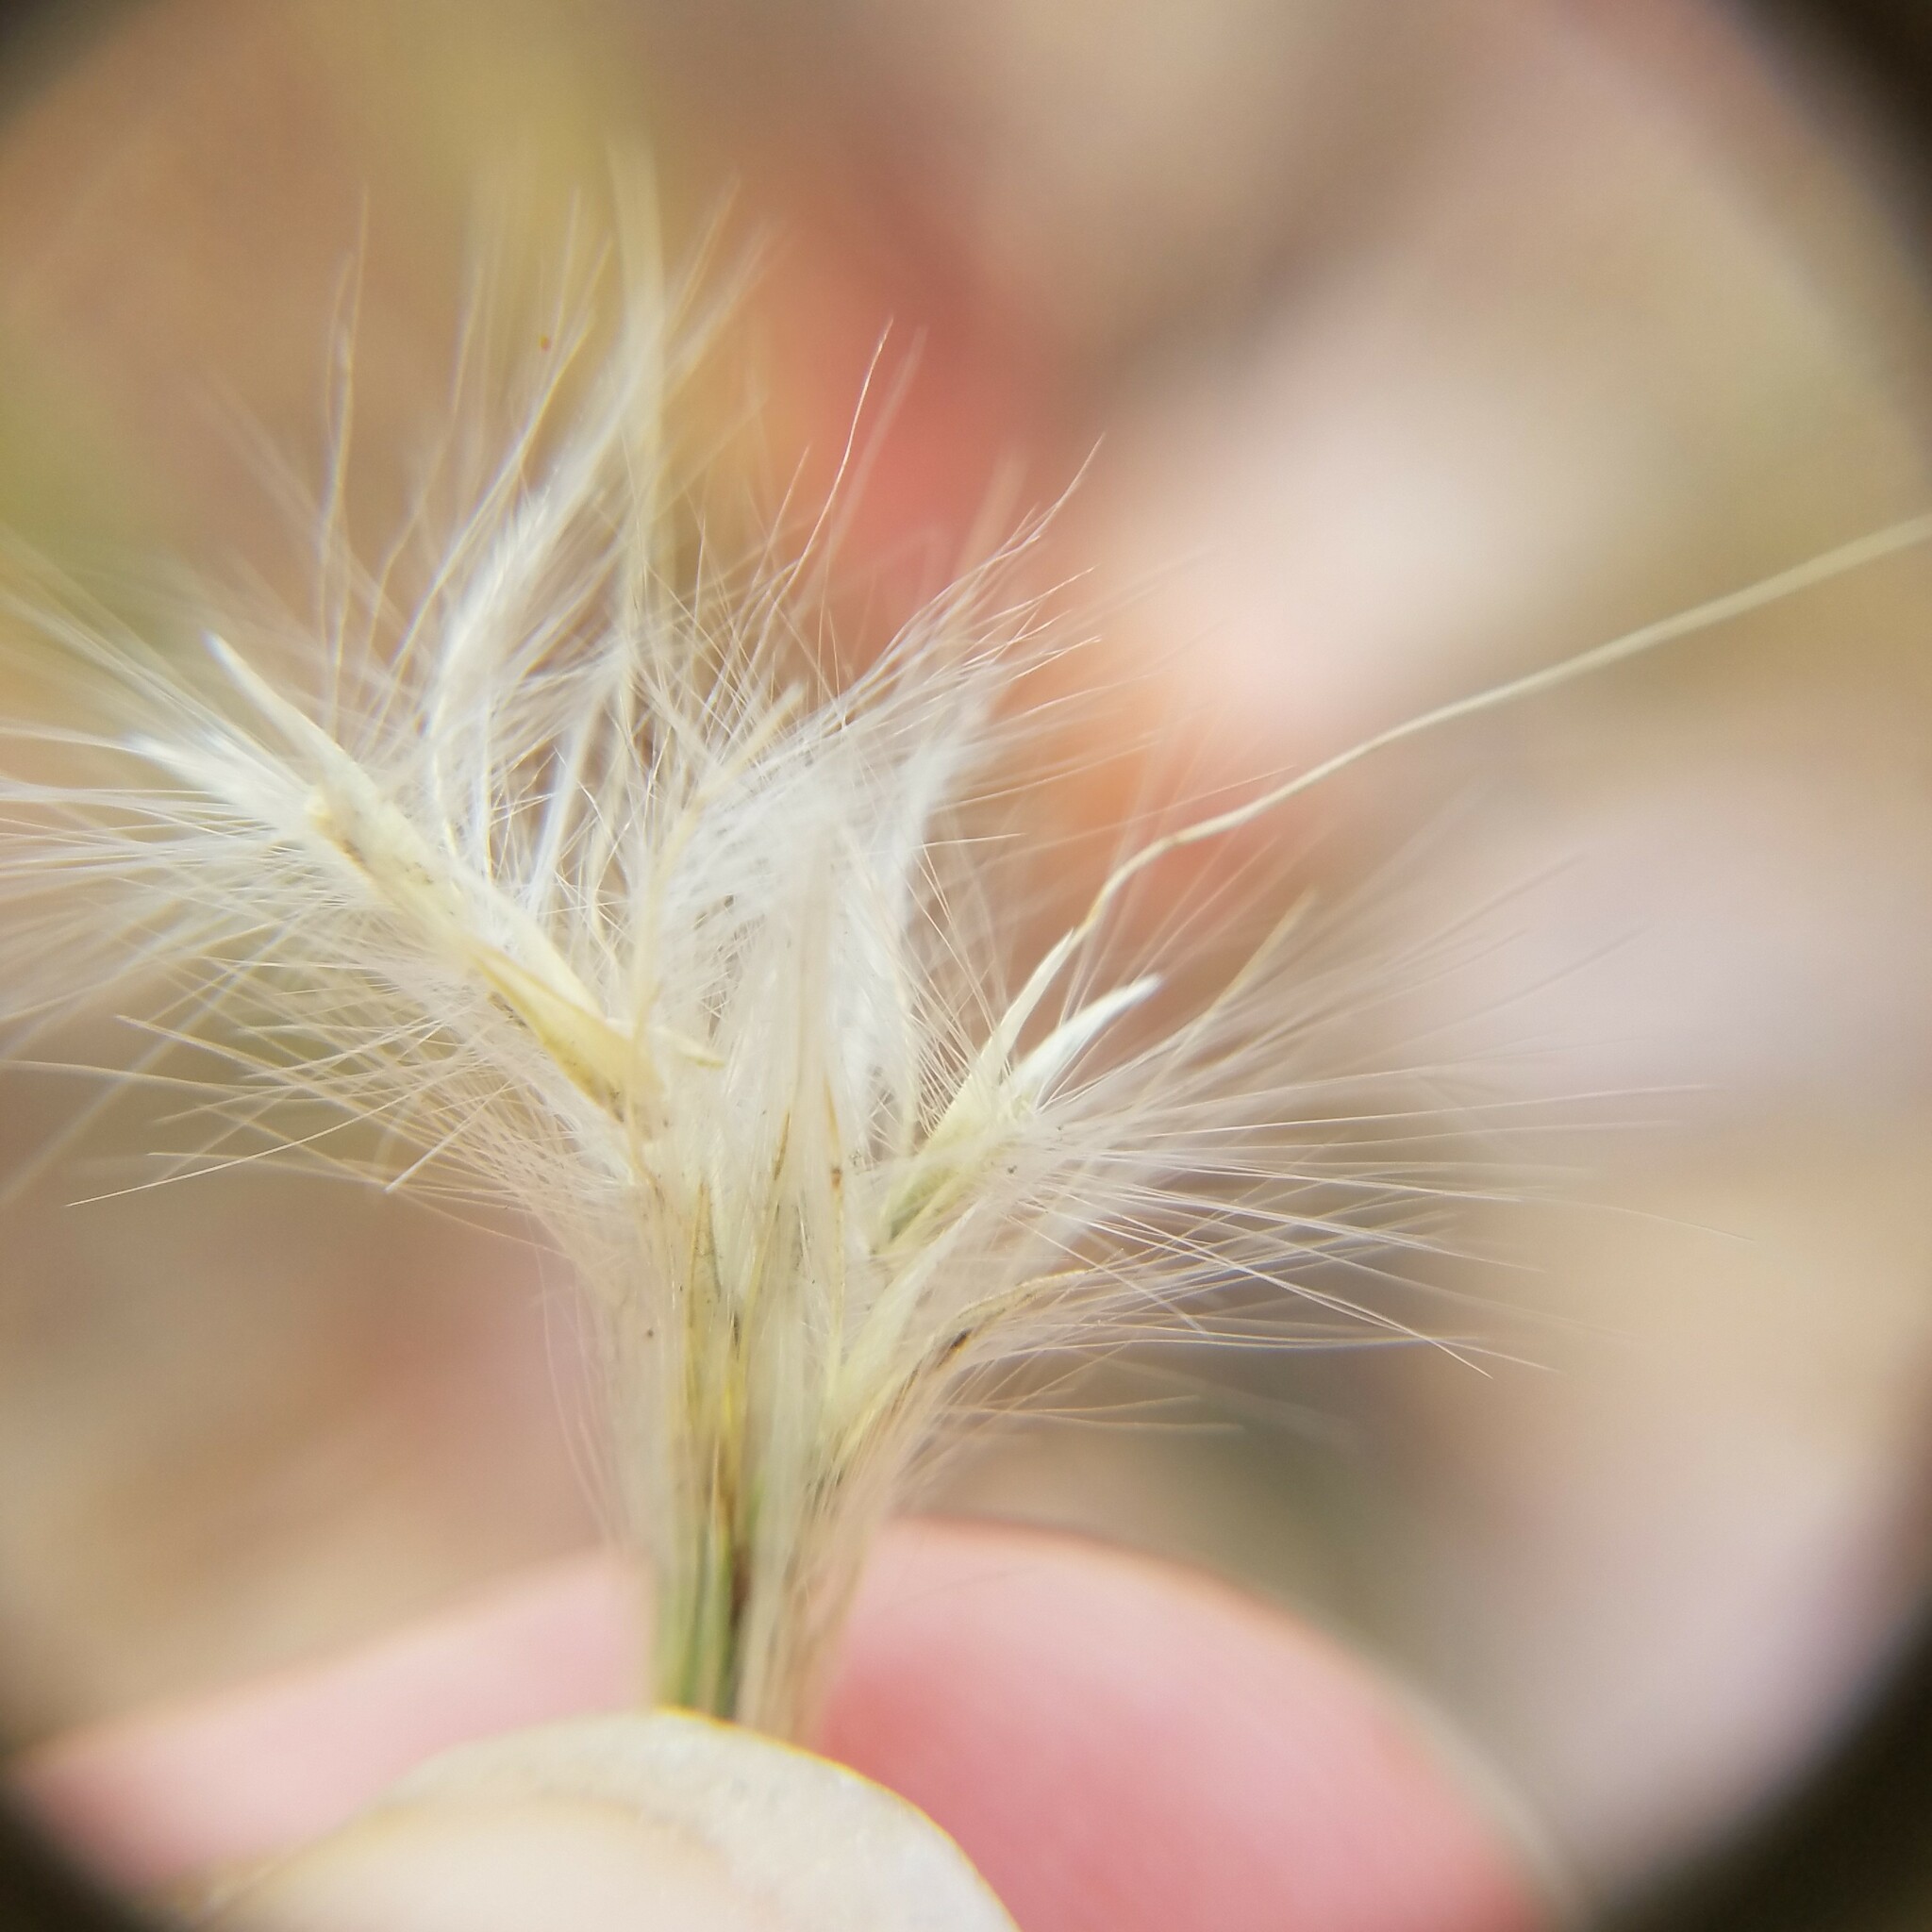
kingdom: Plantae
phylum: Tracheophyta
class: Liliopsida
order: Poales
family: Poaceae
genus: Andropogon
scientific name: Andropogon ternarius
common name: Split bluestem
